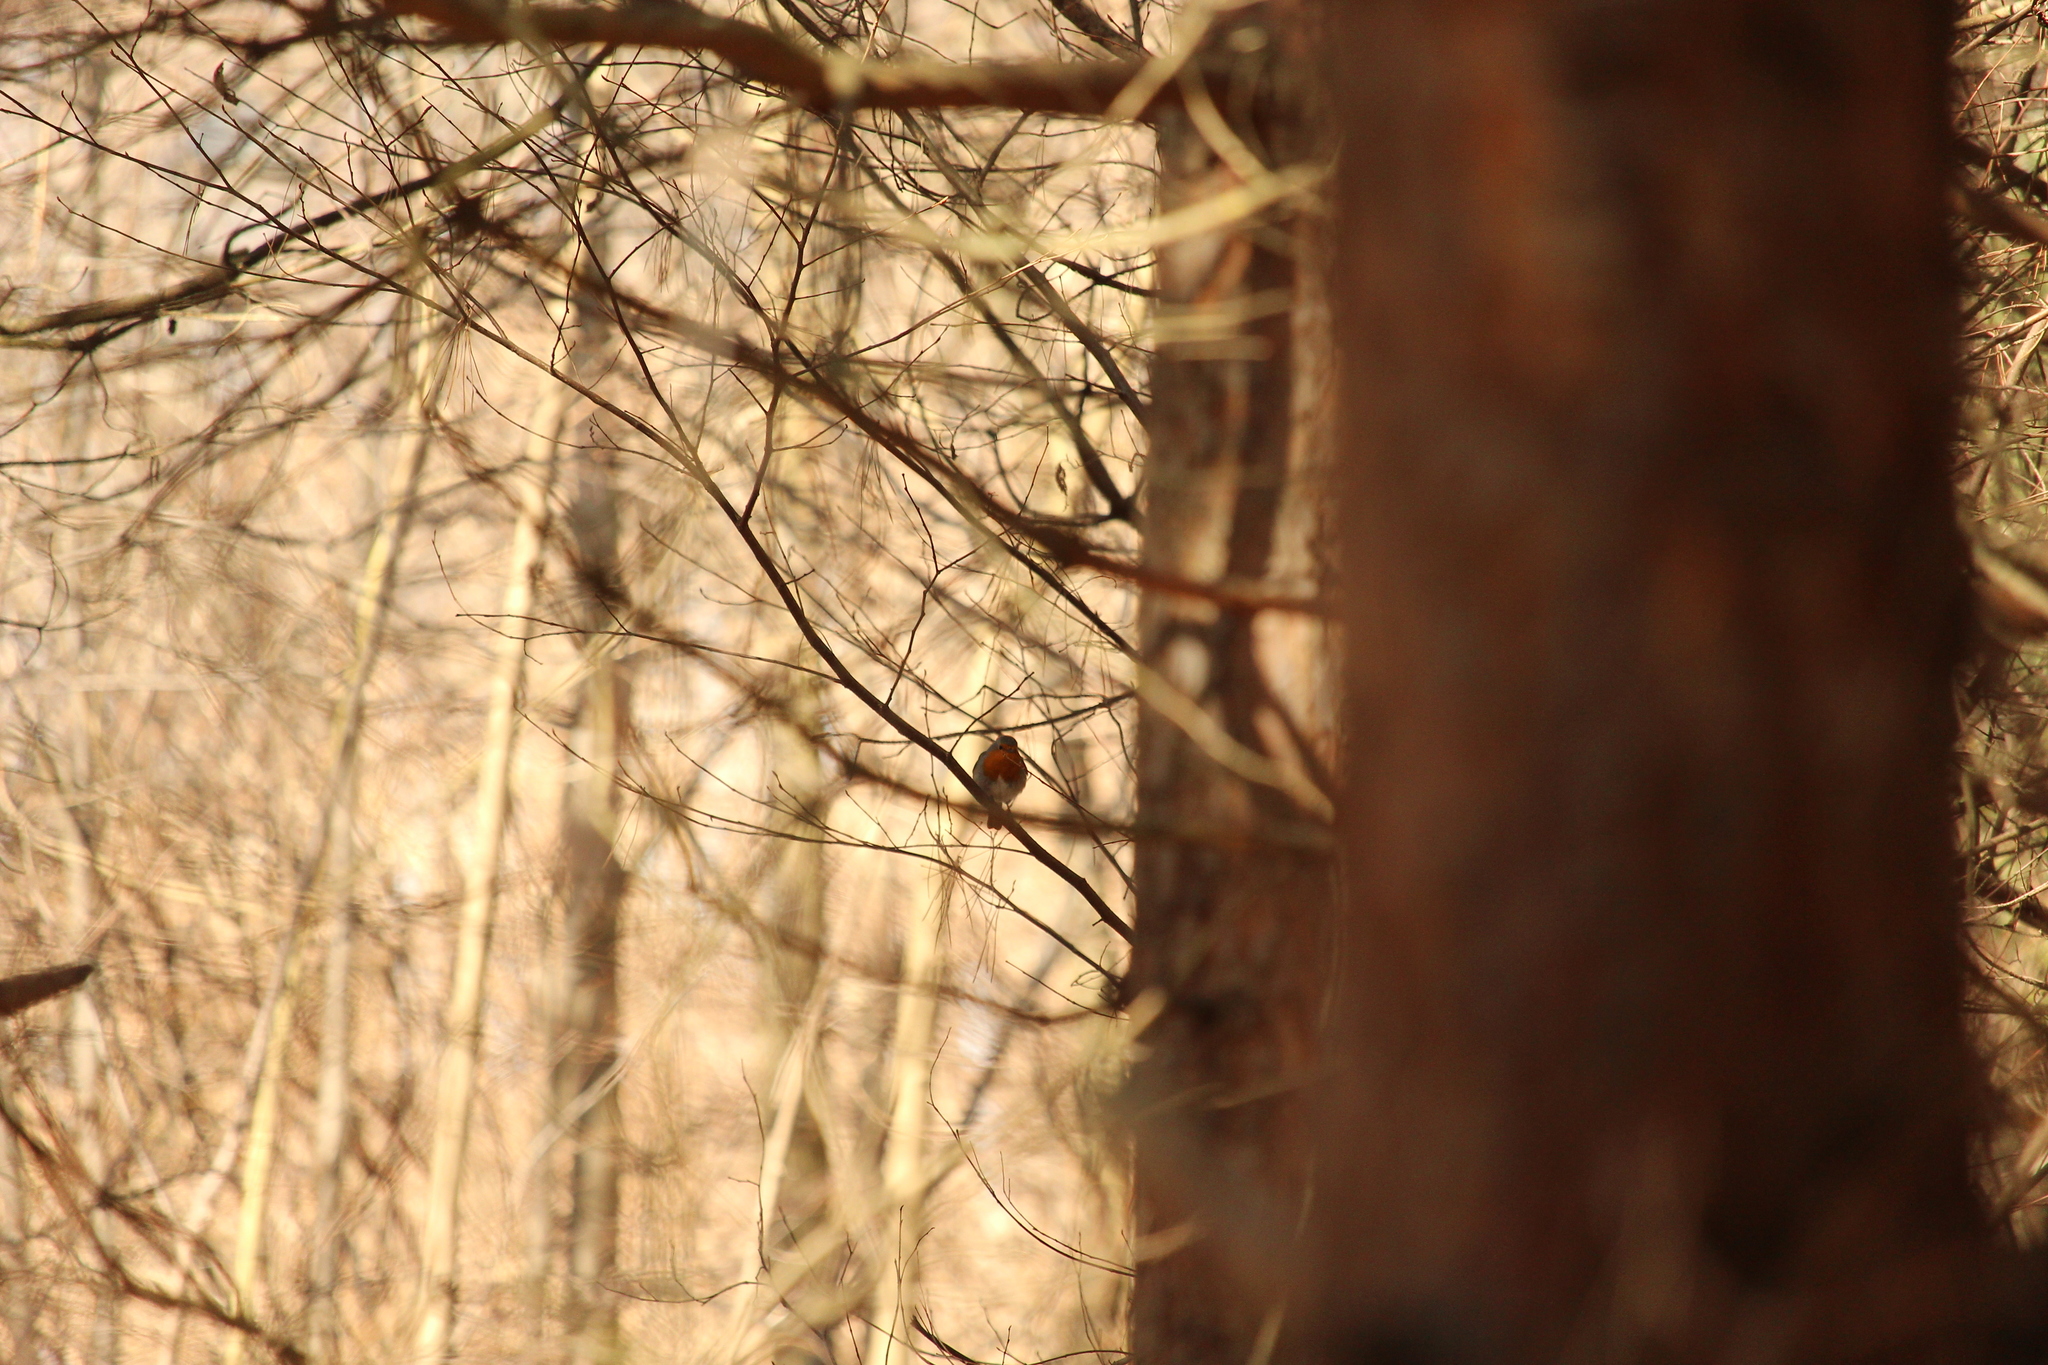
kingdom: Animalia
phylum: Chordata
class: Aves
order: Passeriformes
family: Muscicapidae
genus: Erithacus
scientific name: Erithacus rubecula
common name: European robin
